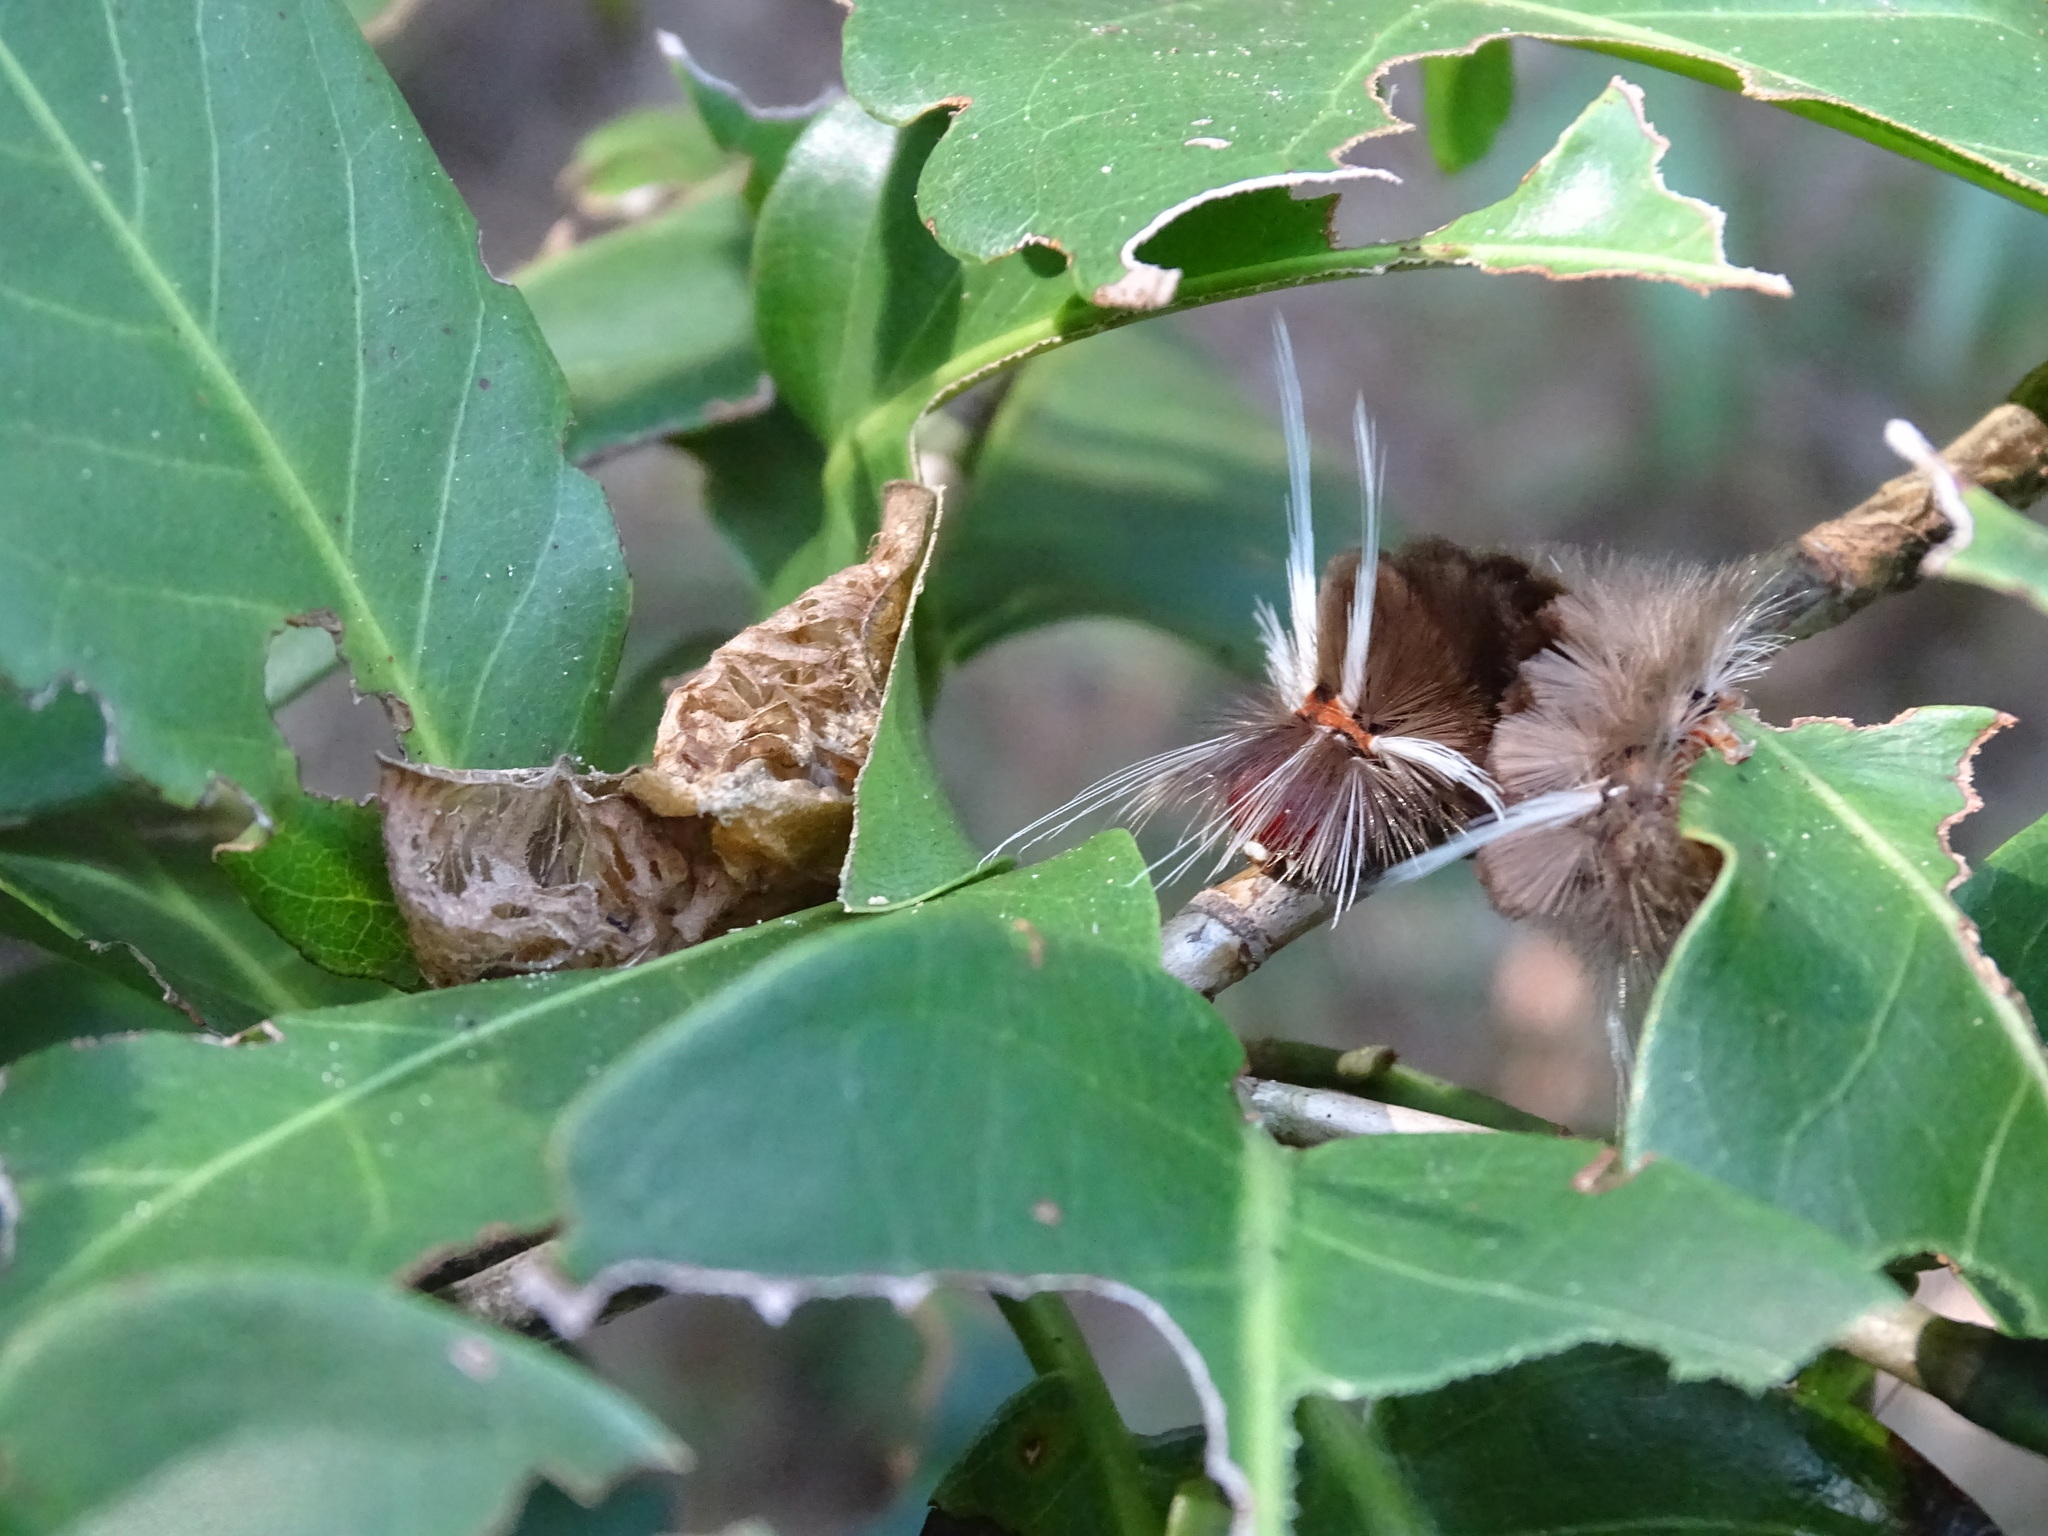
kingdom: Animalia
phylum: Arthropoda
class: Insecta
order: Lepidoptera
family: Erebidae
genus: Halysidota
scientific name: Halysidota cinctipes
